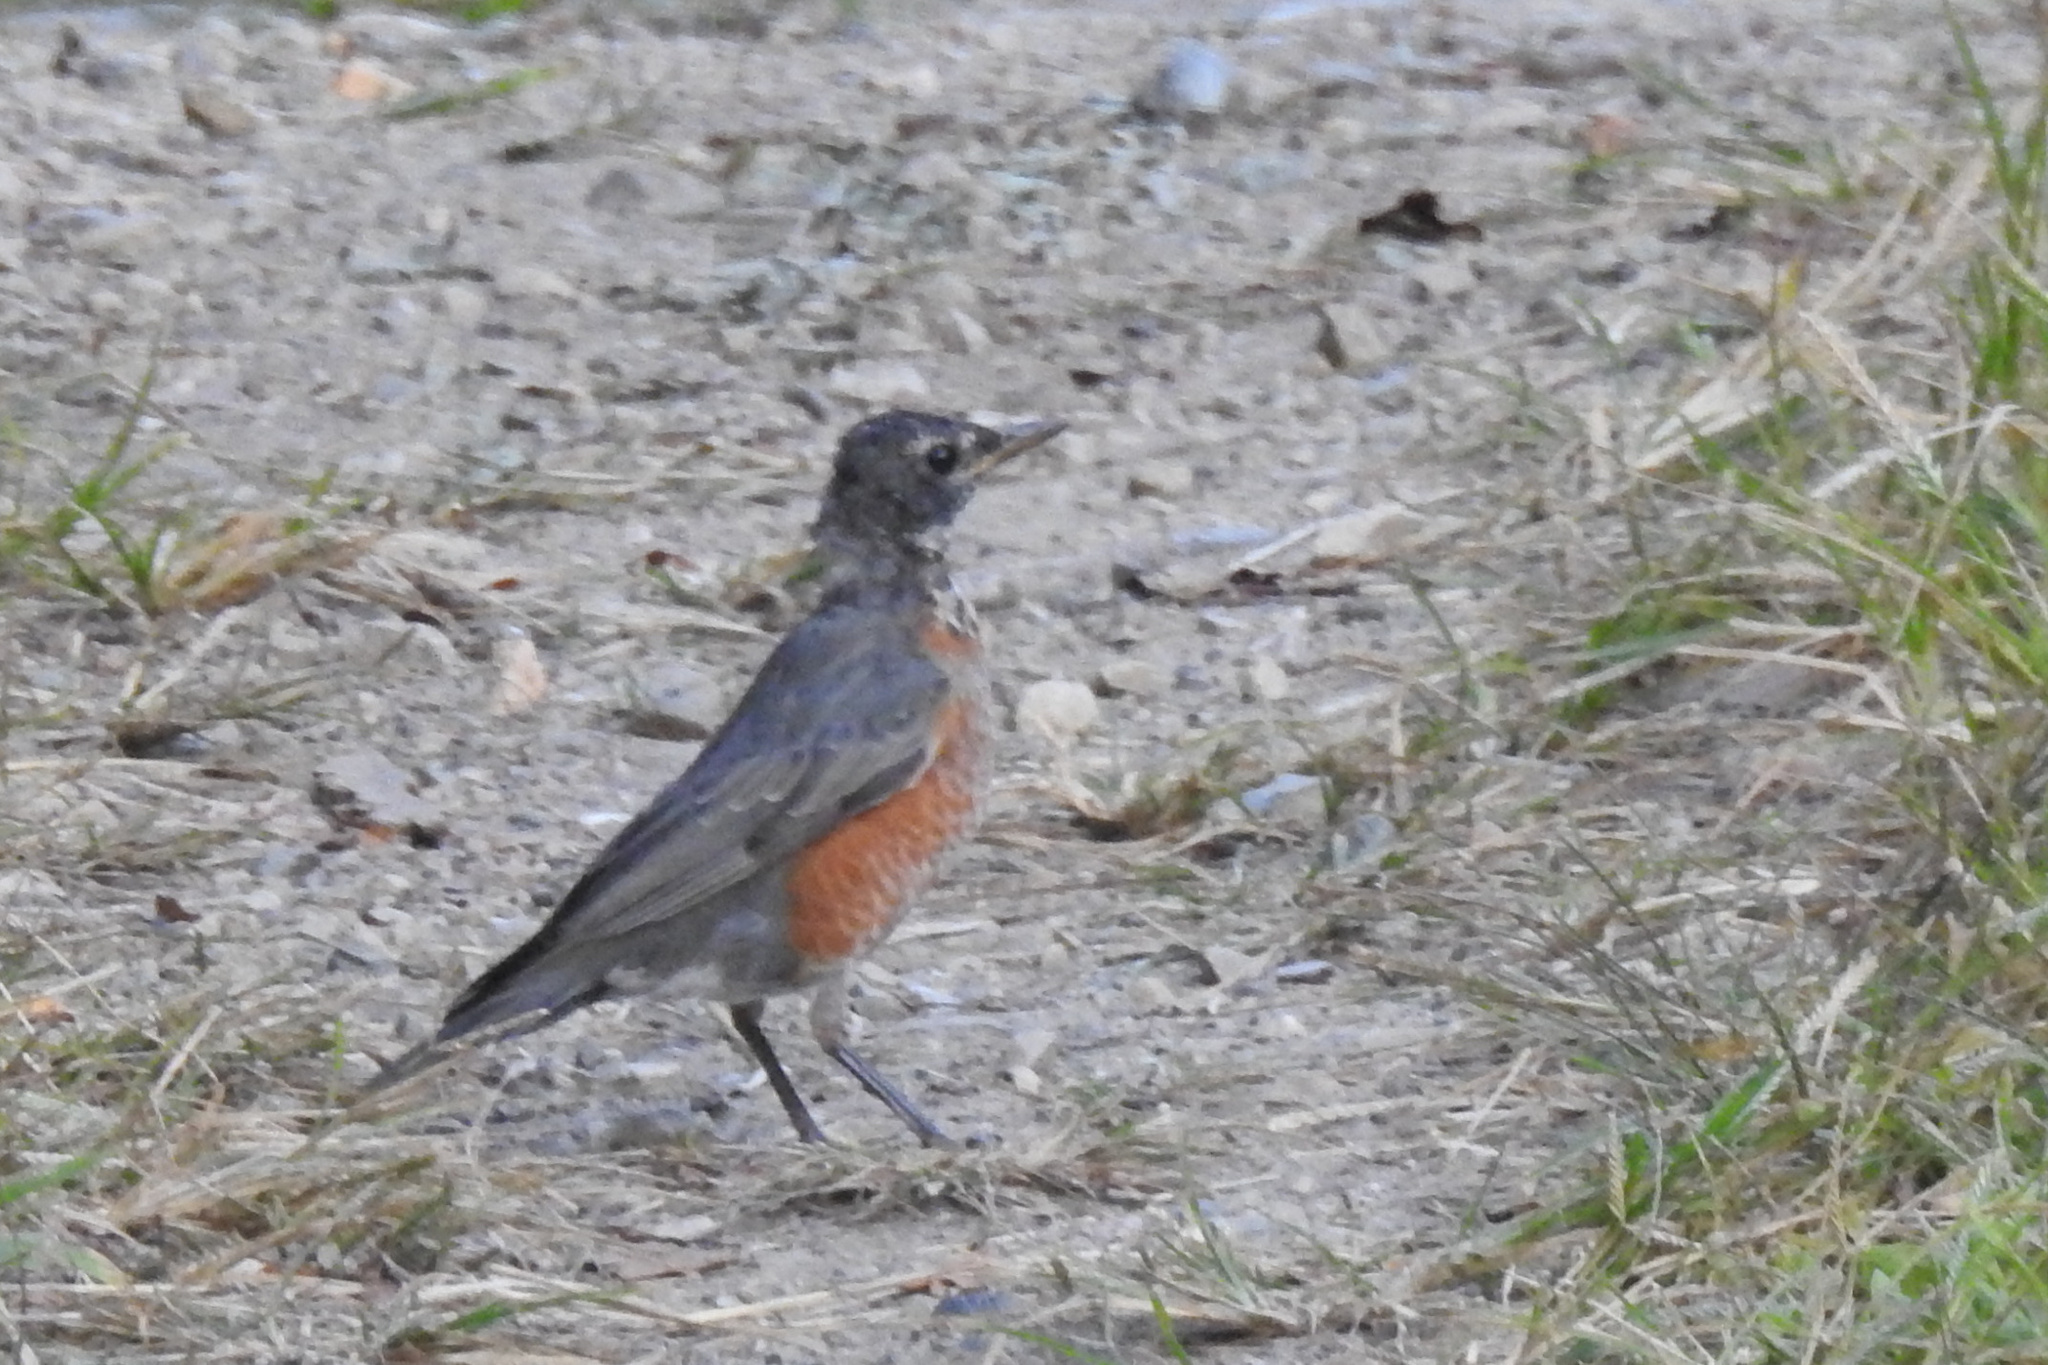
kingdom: Animalia
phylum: Chordata
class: Aves
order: Passeriformes
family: Turdidae
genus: Turdus
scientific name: Turdus migratorius
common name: American robin
